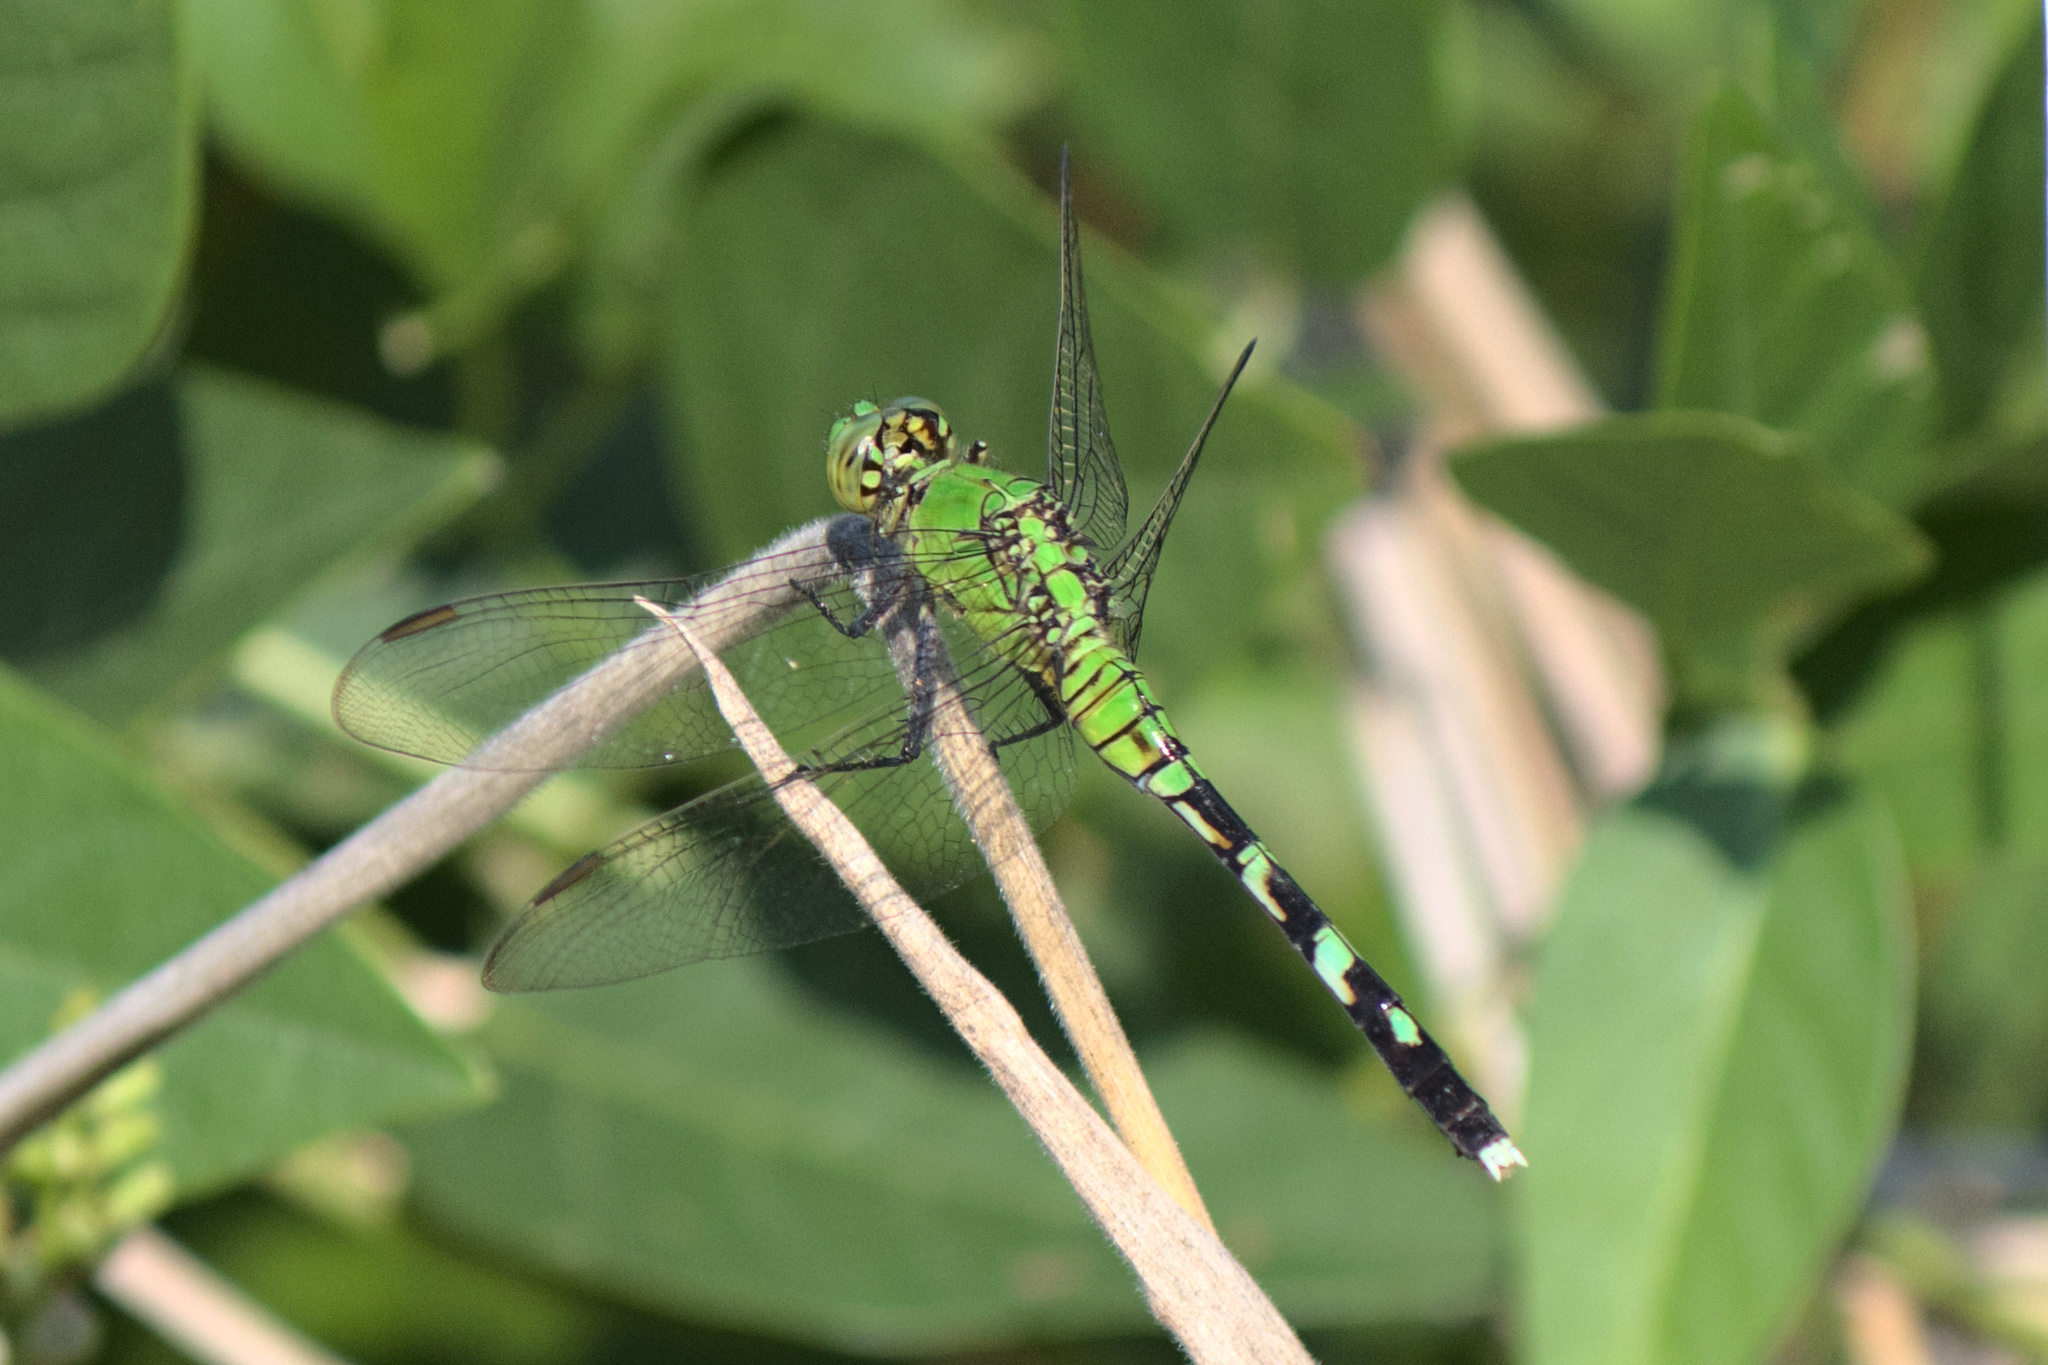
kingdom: Animalia
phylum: Arthropoda
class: Insecta
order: Odonata
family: Libellulidae
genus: Erythemis
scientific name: Erythemis simplicicollis
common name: Eastern pondhawk
